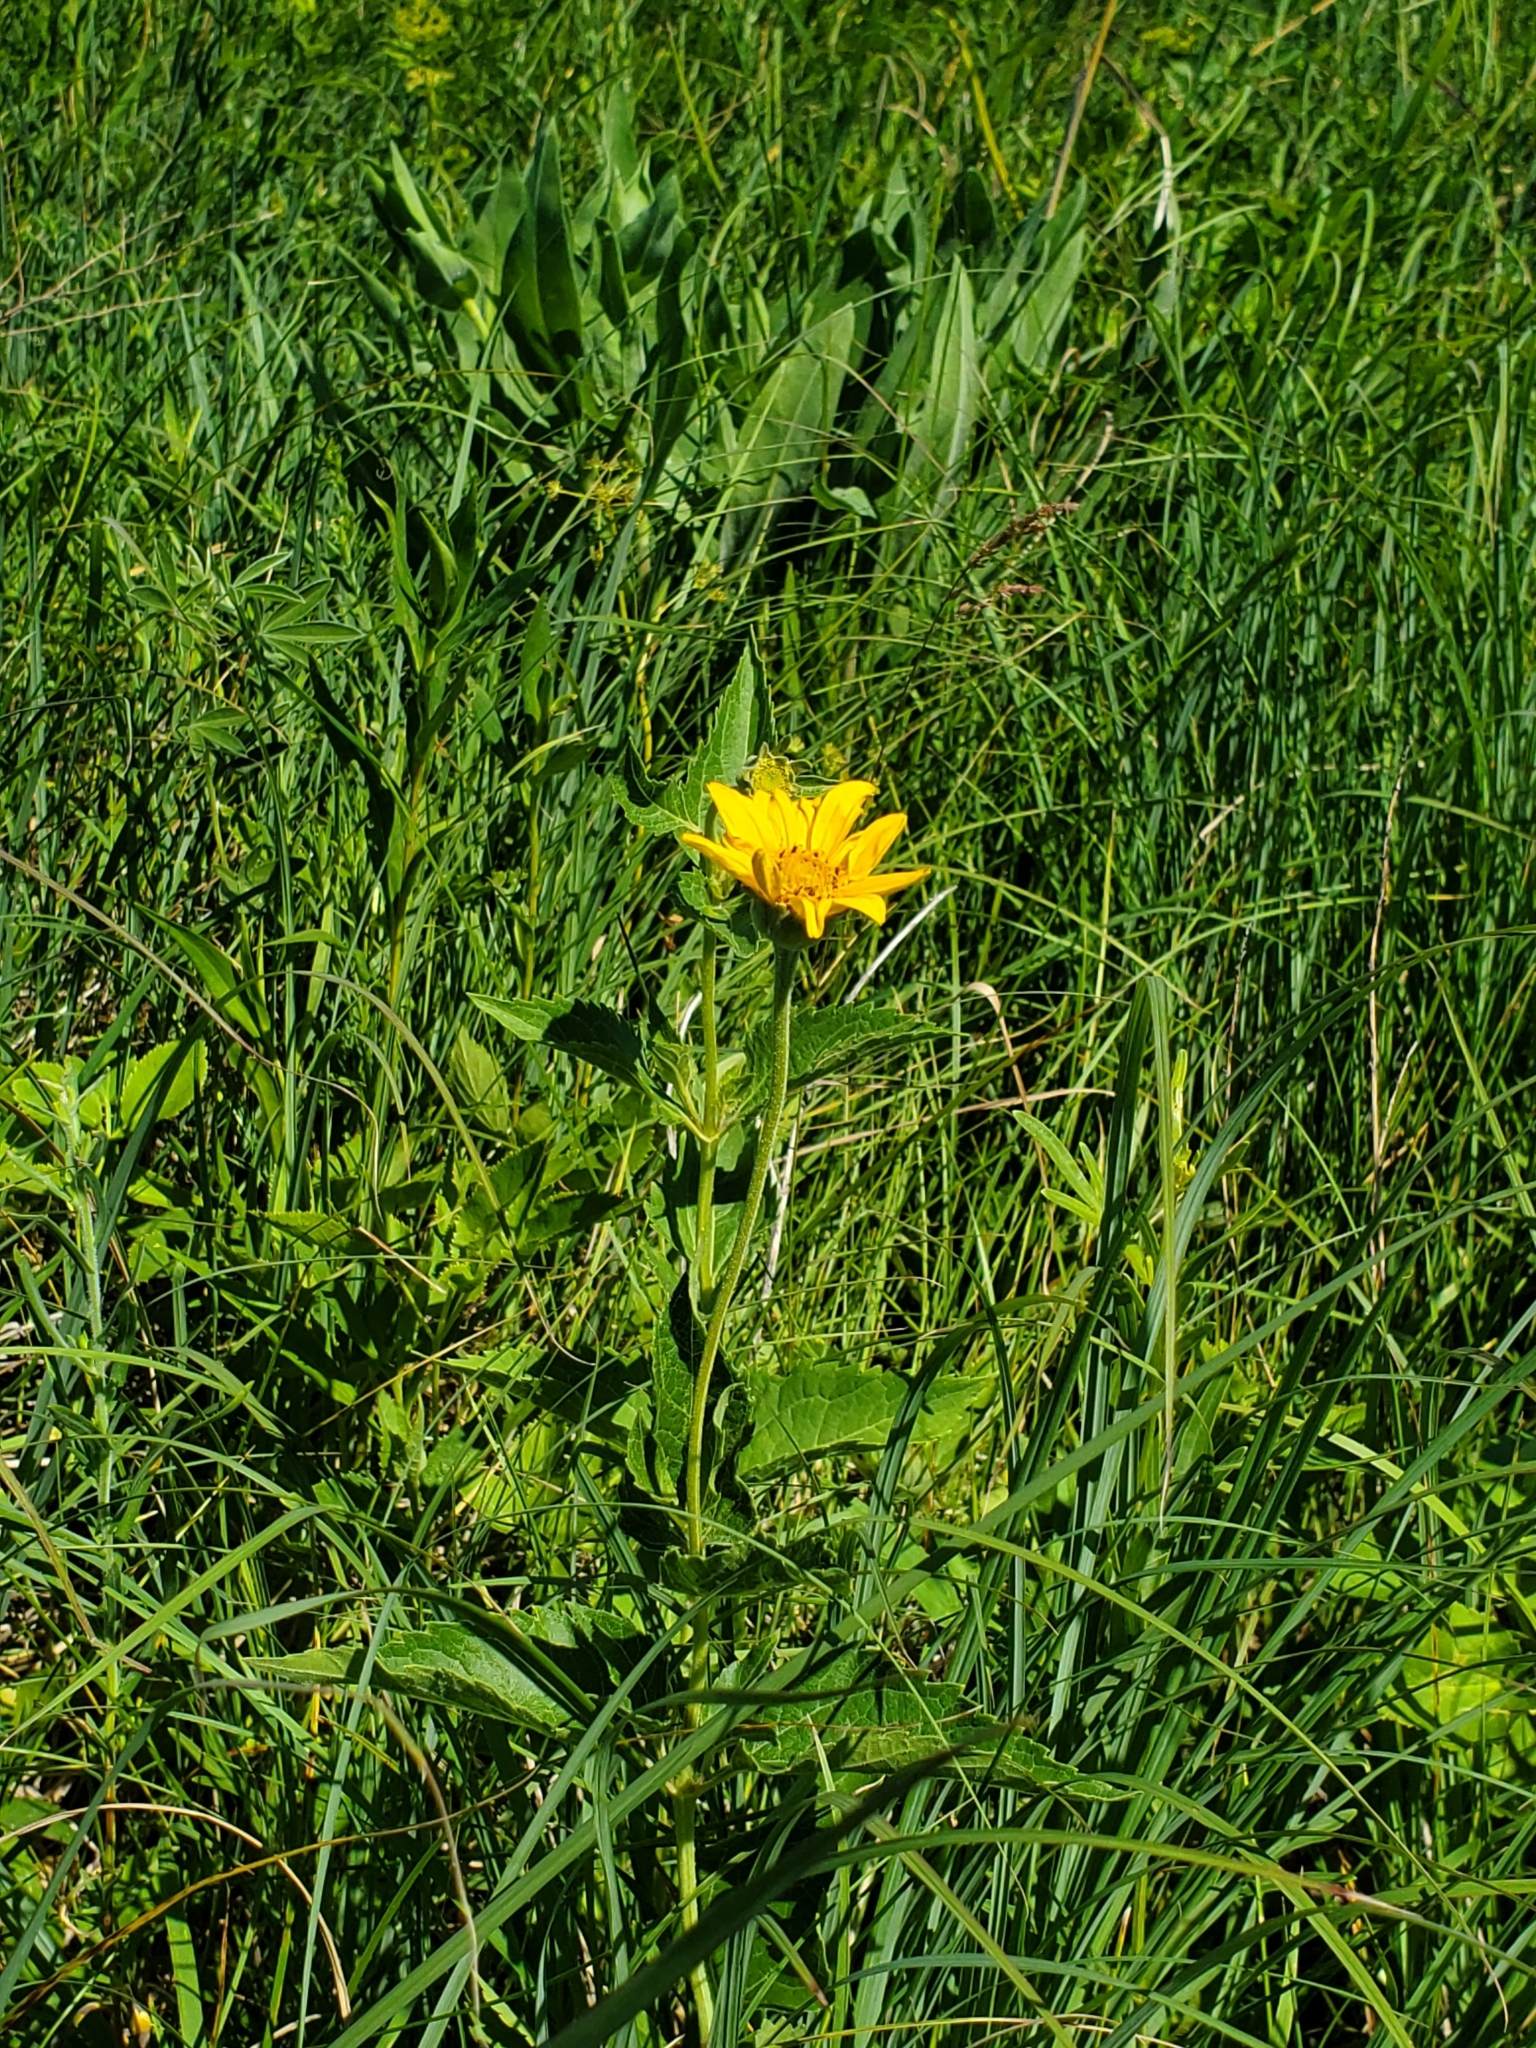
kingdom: Plantae
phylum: Tracheophyta
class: Magnoliopsida
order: Asterales
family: Asteraceae
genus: Heliopsis
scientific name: Heliopsis helianthoides
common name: False sunflower
